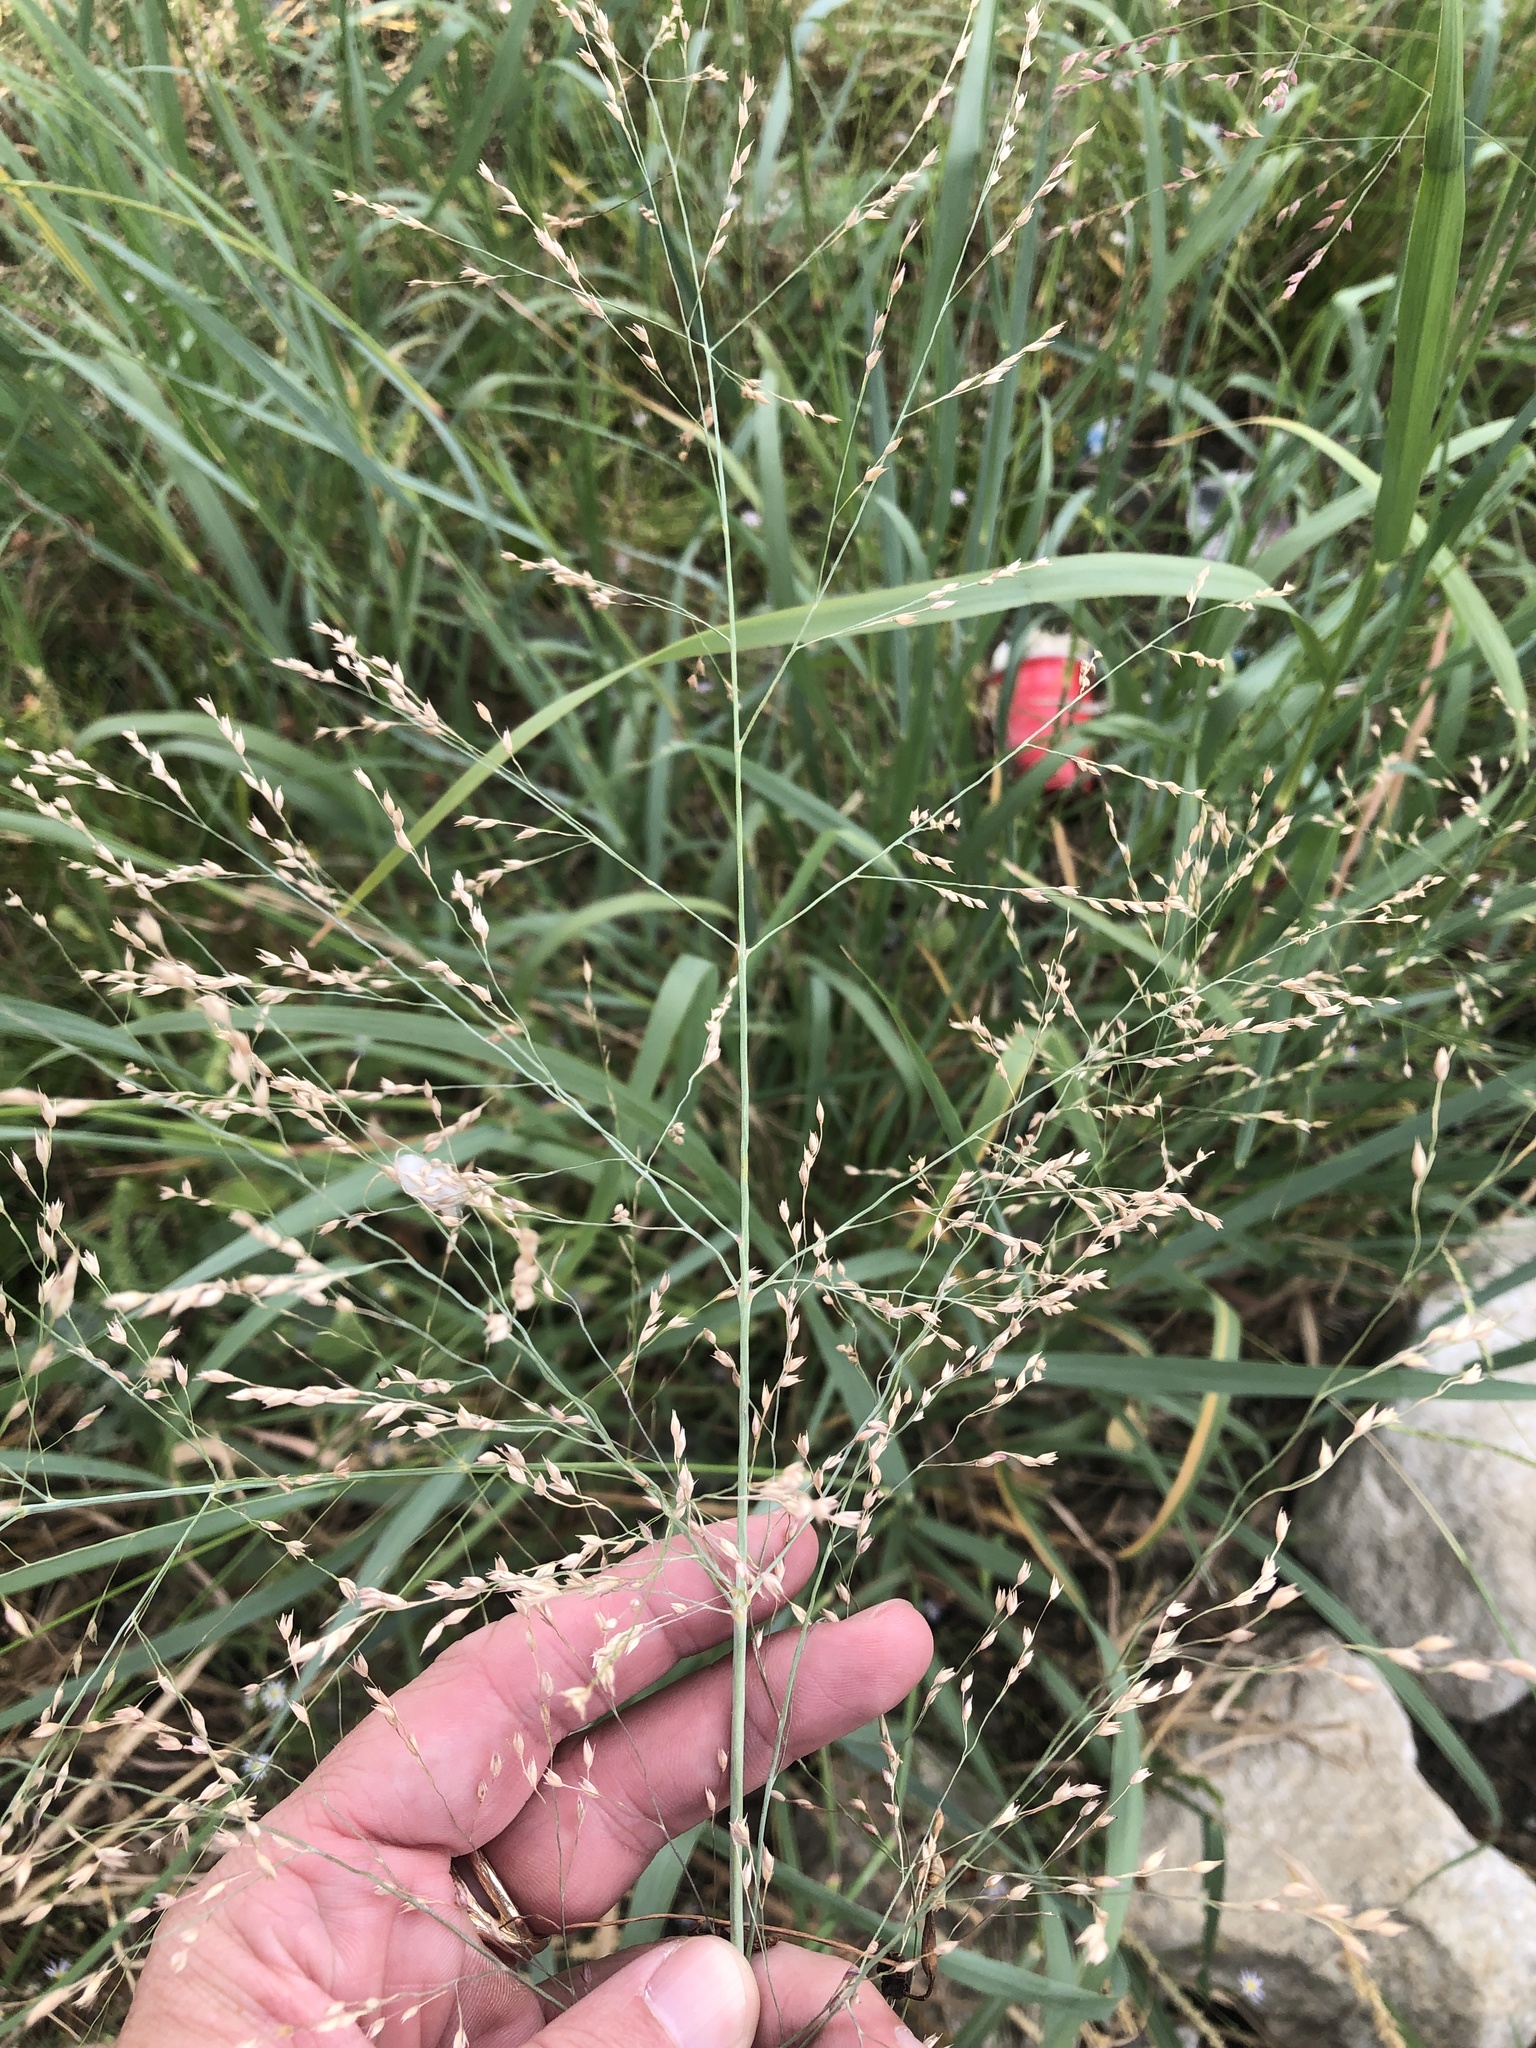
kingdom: Plantae
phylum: Tracheophyta
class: Liliopsida
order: Poales
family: Poaceae
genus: Panicum
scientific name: Panicum virgatum
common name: Switchgrass
